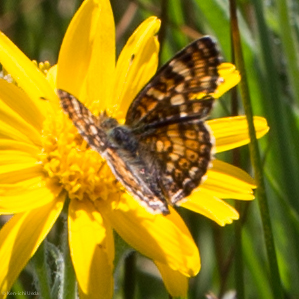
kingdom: Animalia
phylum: Arthropoda
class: Insecta
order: Lepidoptera
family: Nymphalidae
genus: Phyciodes
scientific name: Phyciodes tharos
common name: Pearl crescent
